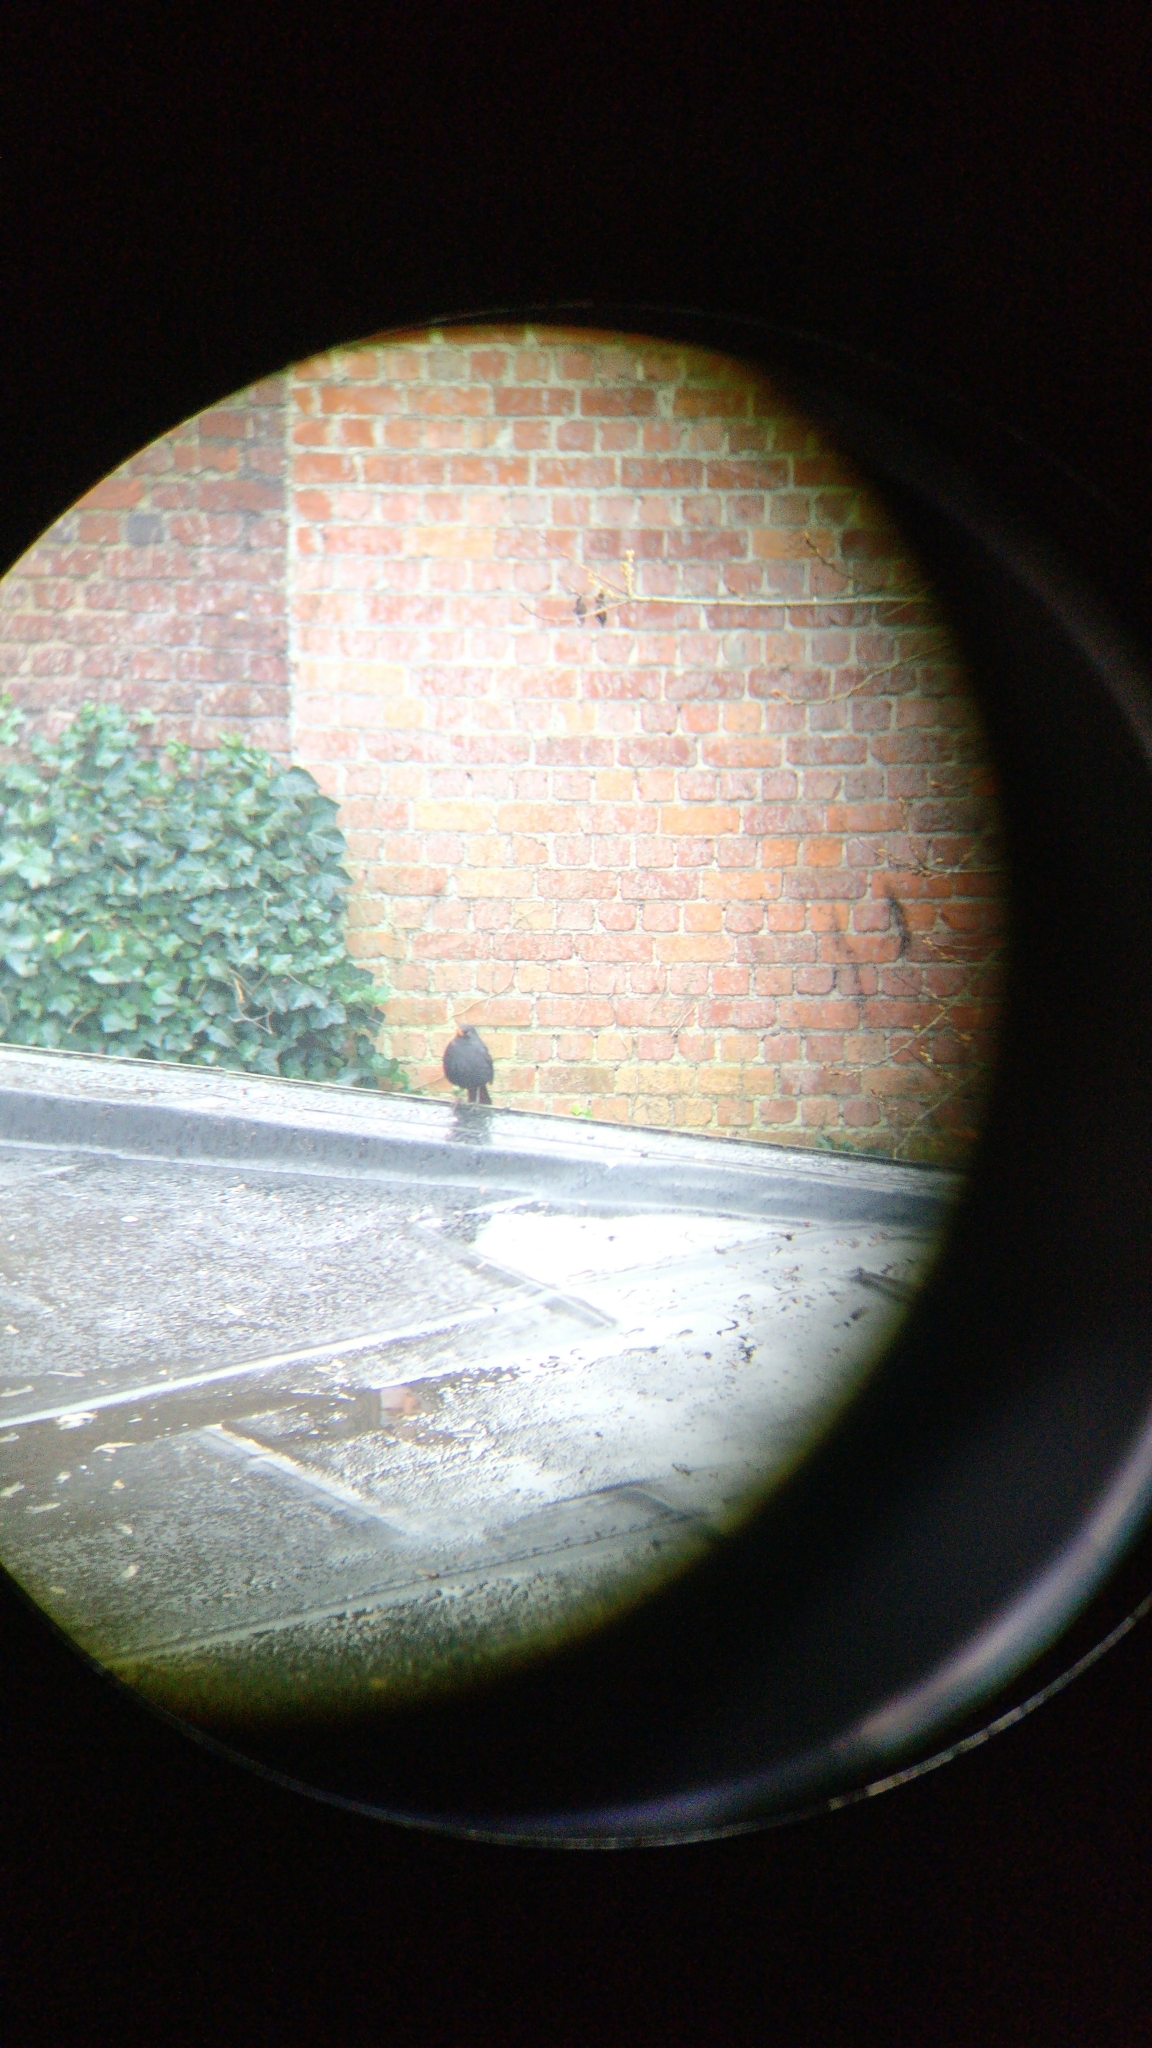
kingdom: Animalia
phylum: Chordata
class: Aves
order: Passeriformes
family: Turdidae
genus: Turdus
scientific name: Turdus merula
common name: Common blackbird
